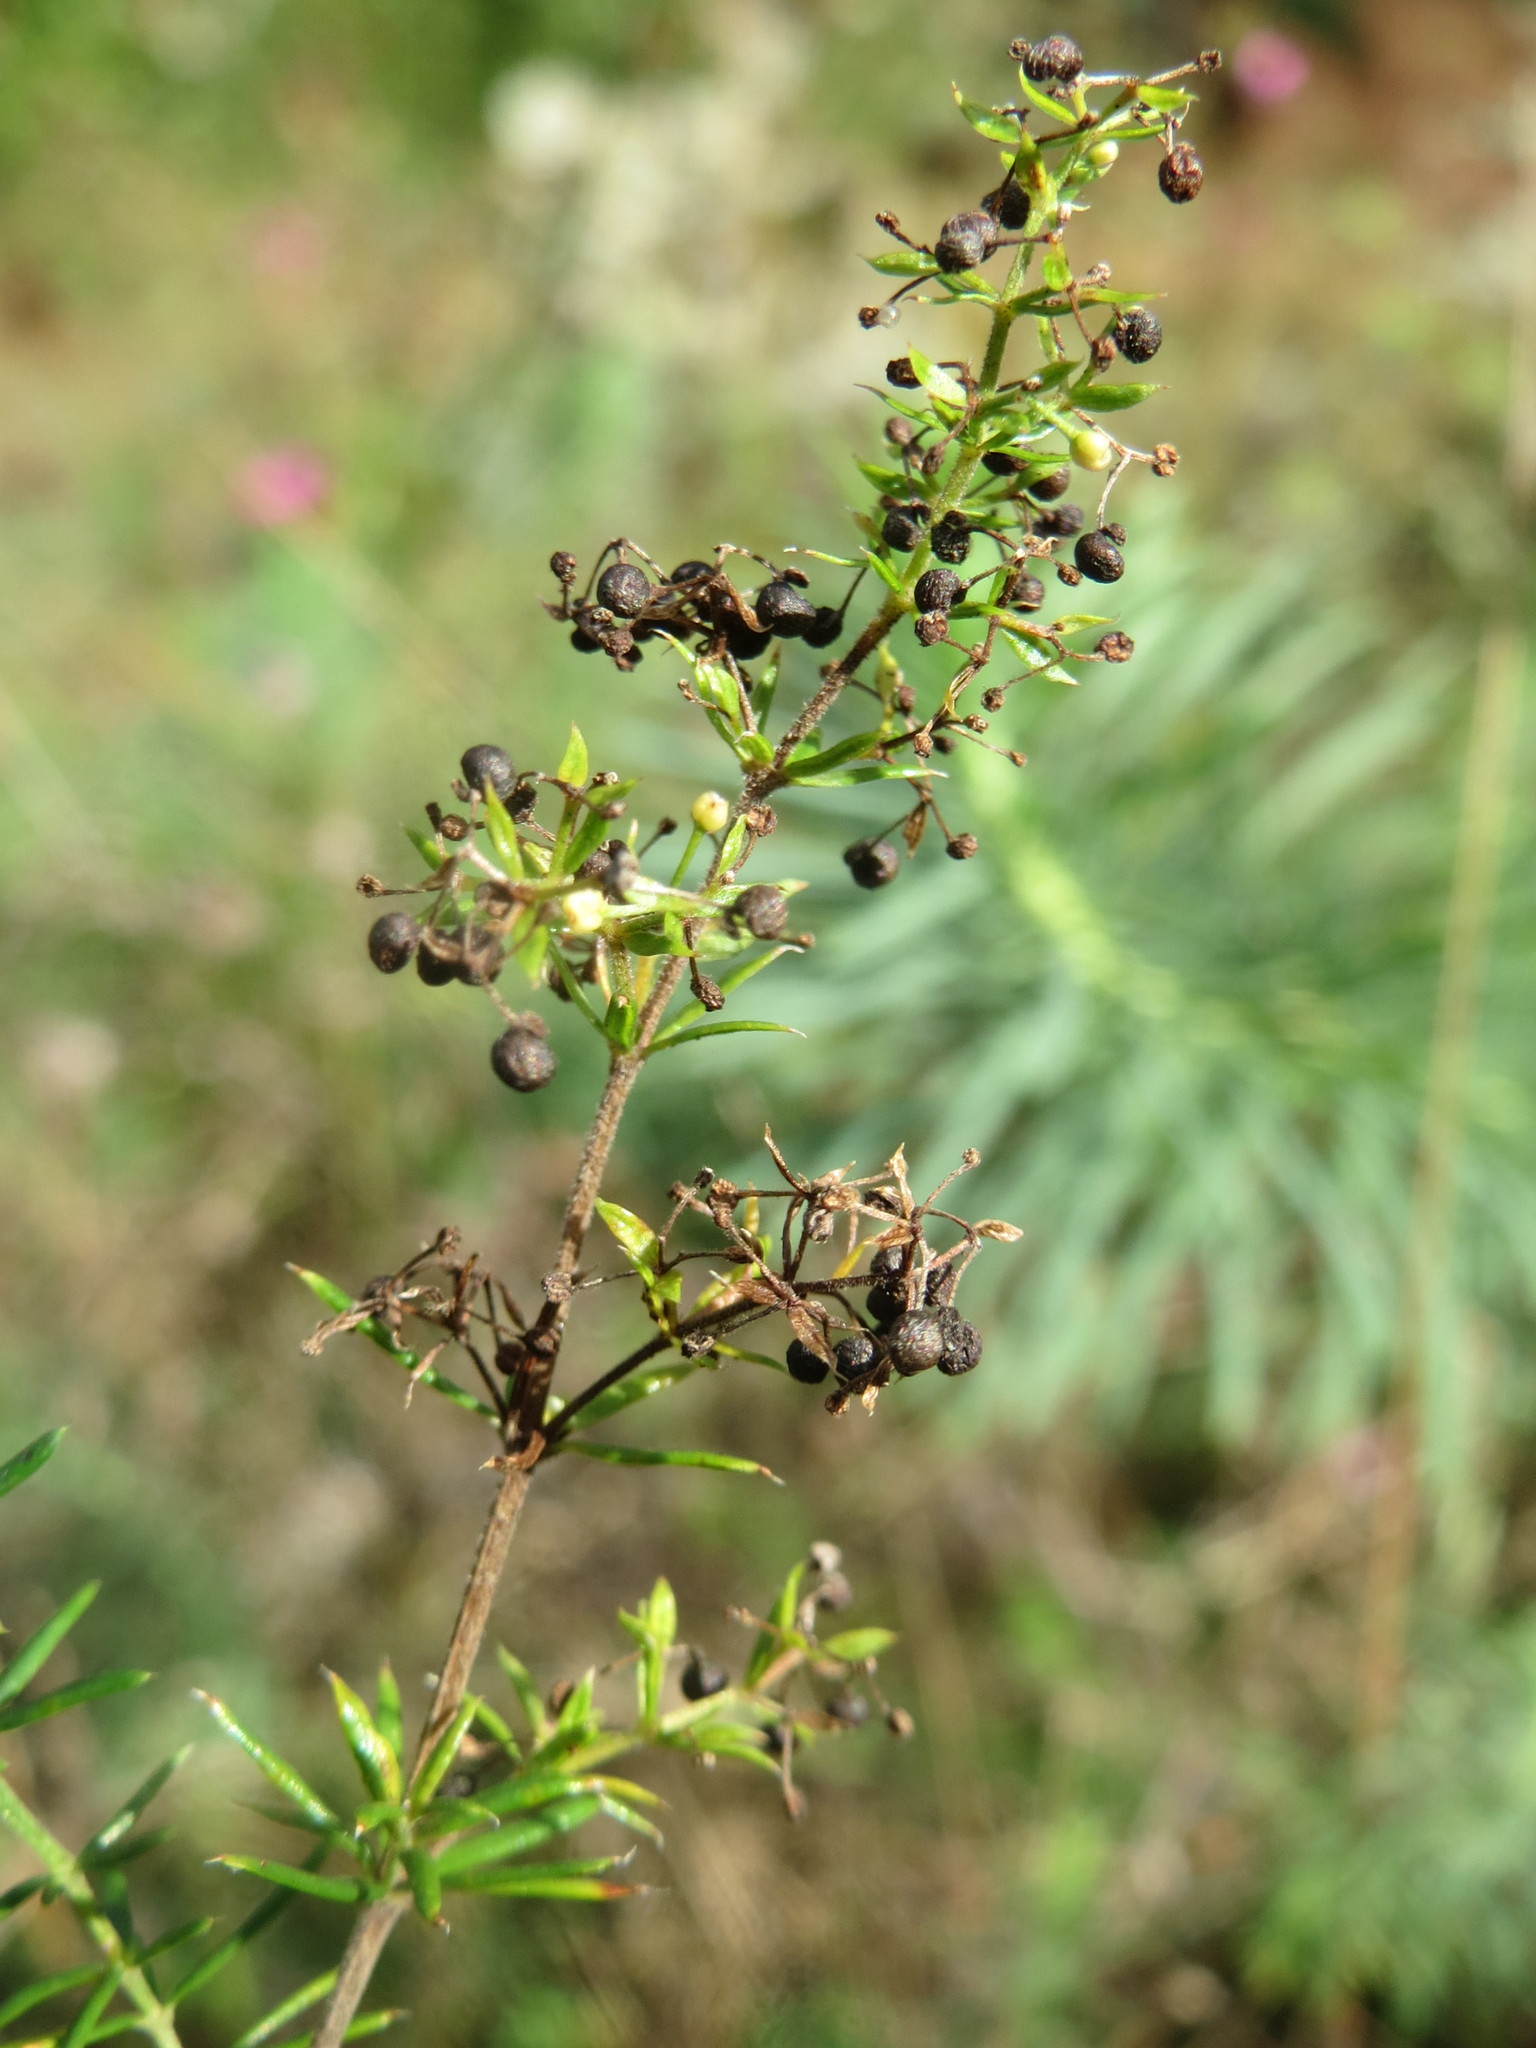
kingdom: Plantae
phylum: Tracheophyta
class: Magnoliopsida
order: Gentianales
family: Rubiaceae
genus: Galium
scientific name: Galium verum
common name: Lady's bedstraw
